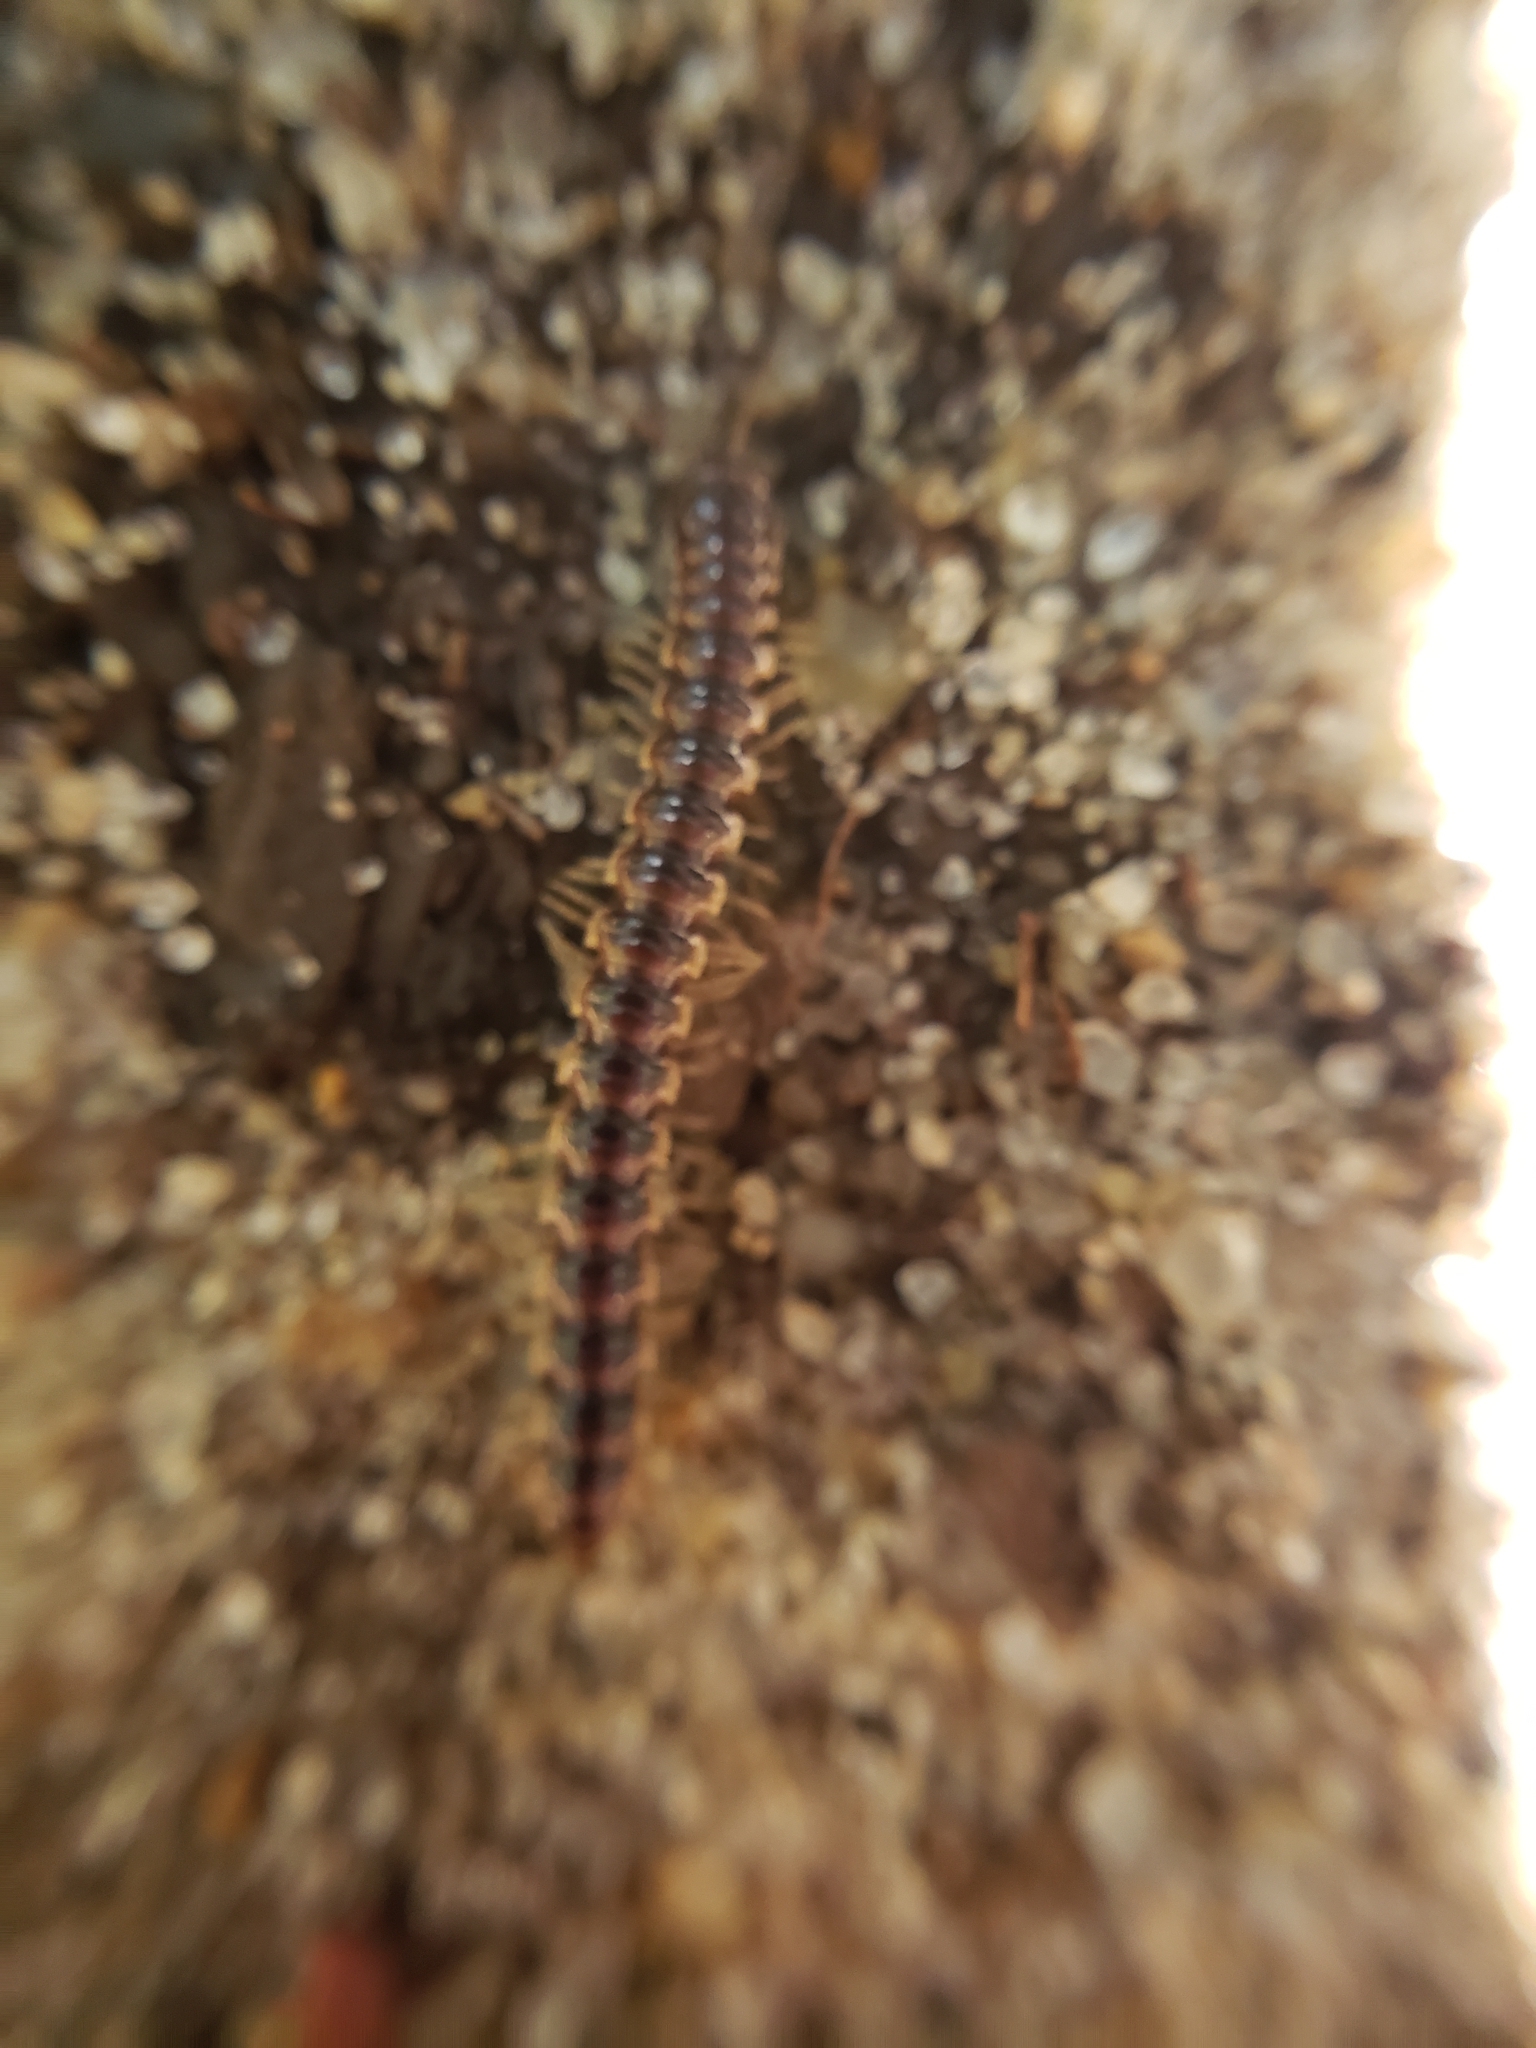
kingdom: Animalia
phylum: Arthropoda
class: Diplopoda
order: Polydesmida
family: Paradoxosomatidae
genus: Oxidus
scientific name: Oxidus gracilis
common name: Greenhouse millipede
